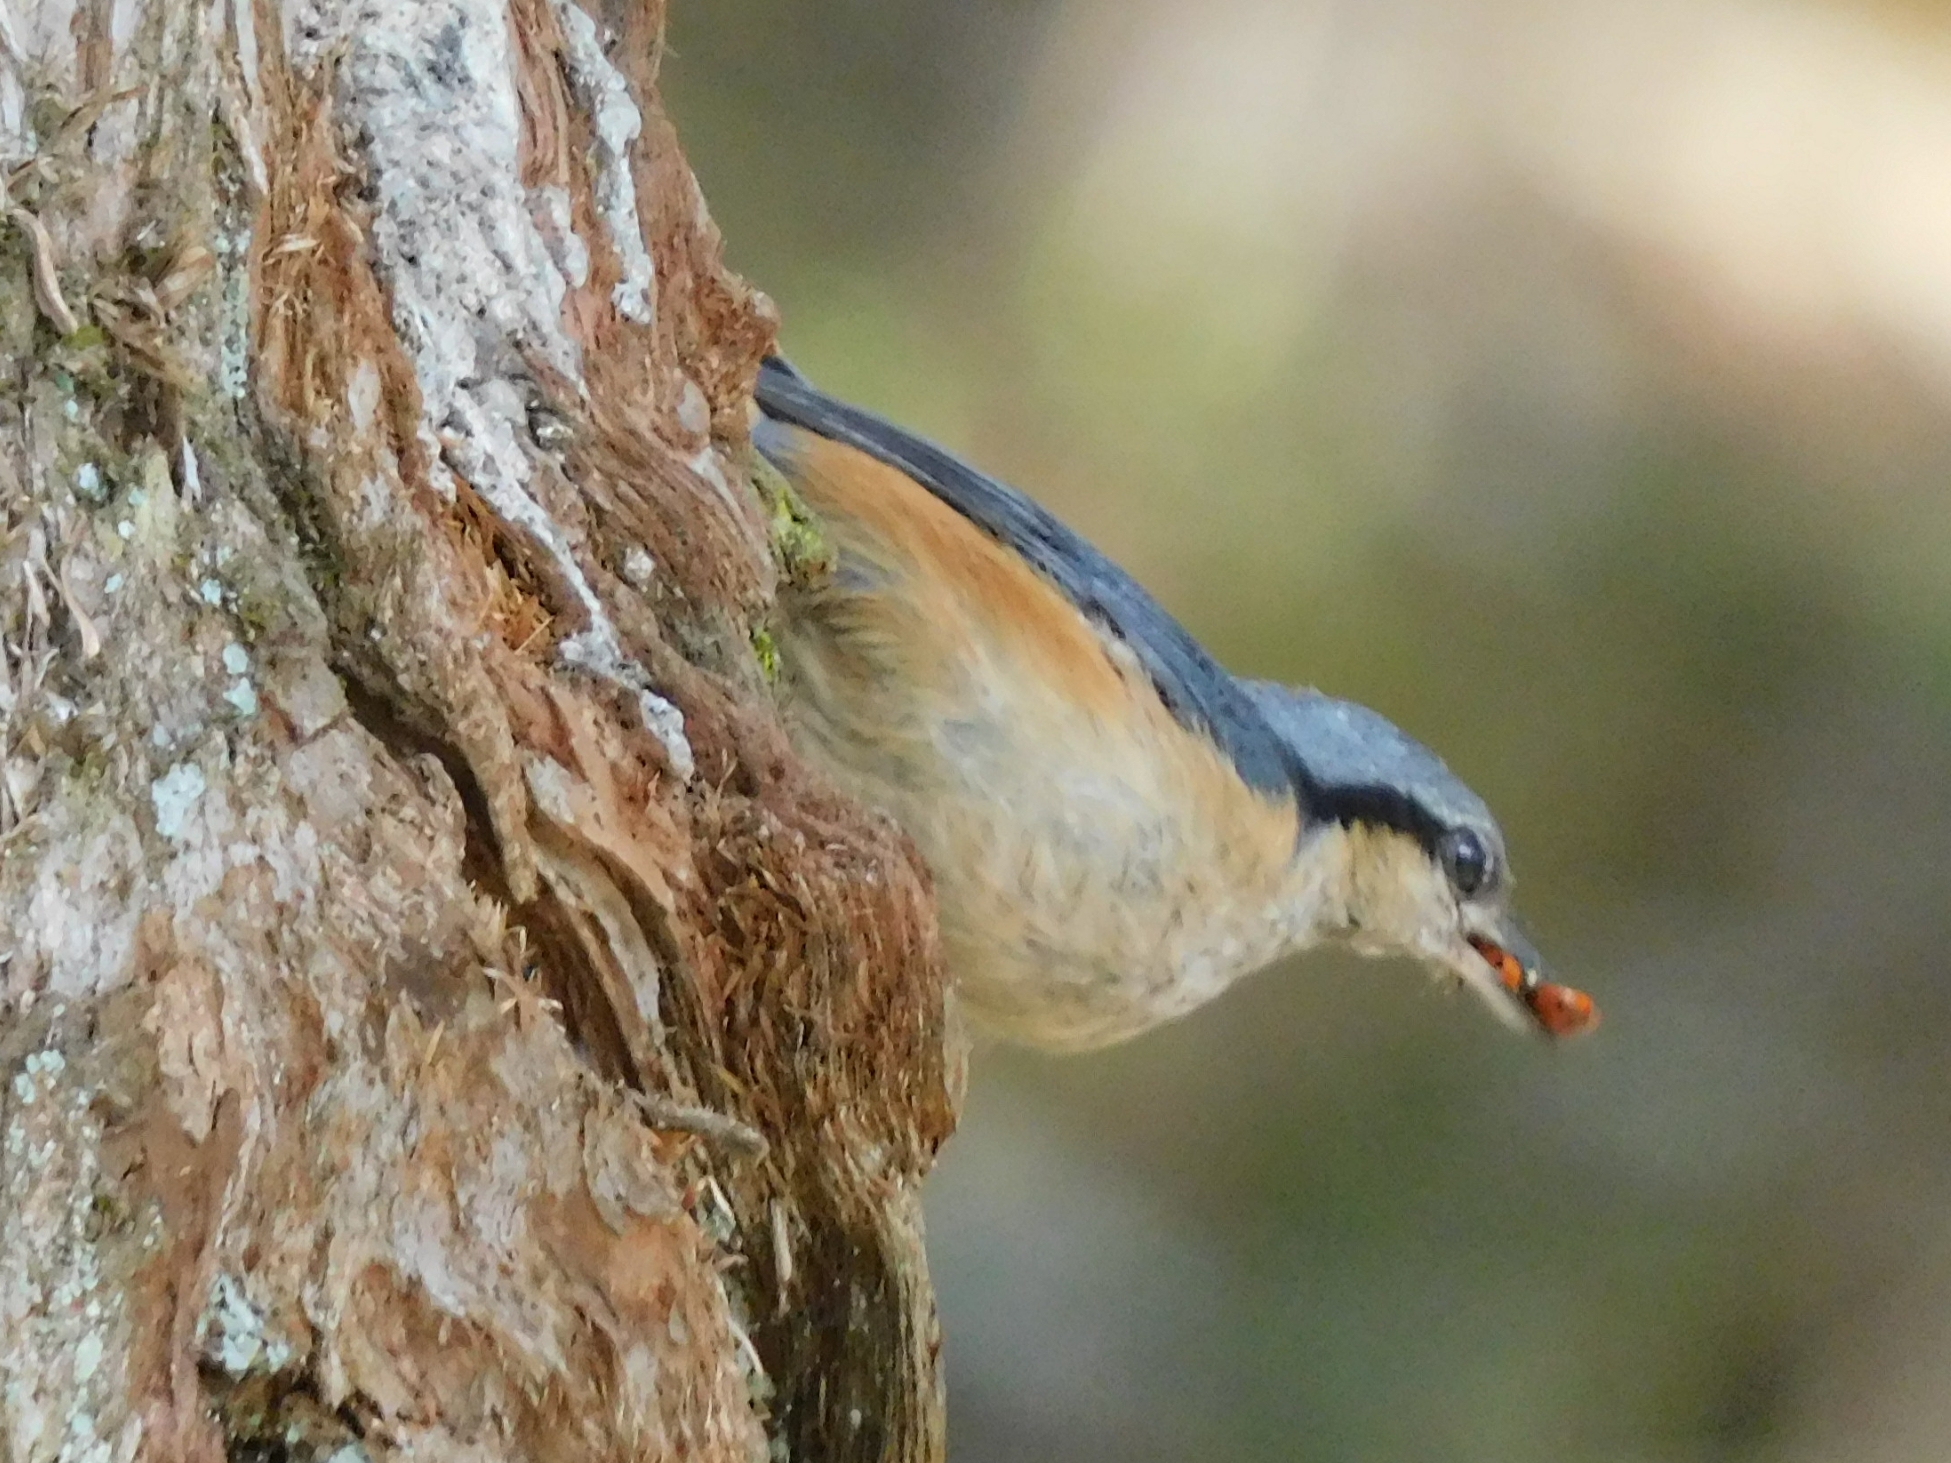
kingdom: Animalia
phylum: Chordata
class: Aves
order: Passeriformes
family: Sittidae
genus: Sitta
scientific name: Sitta himalayensis
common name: White-tailed nuthatch
